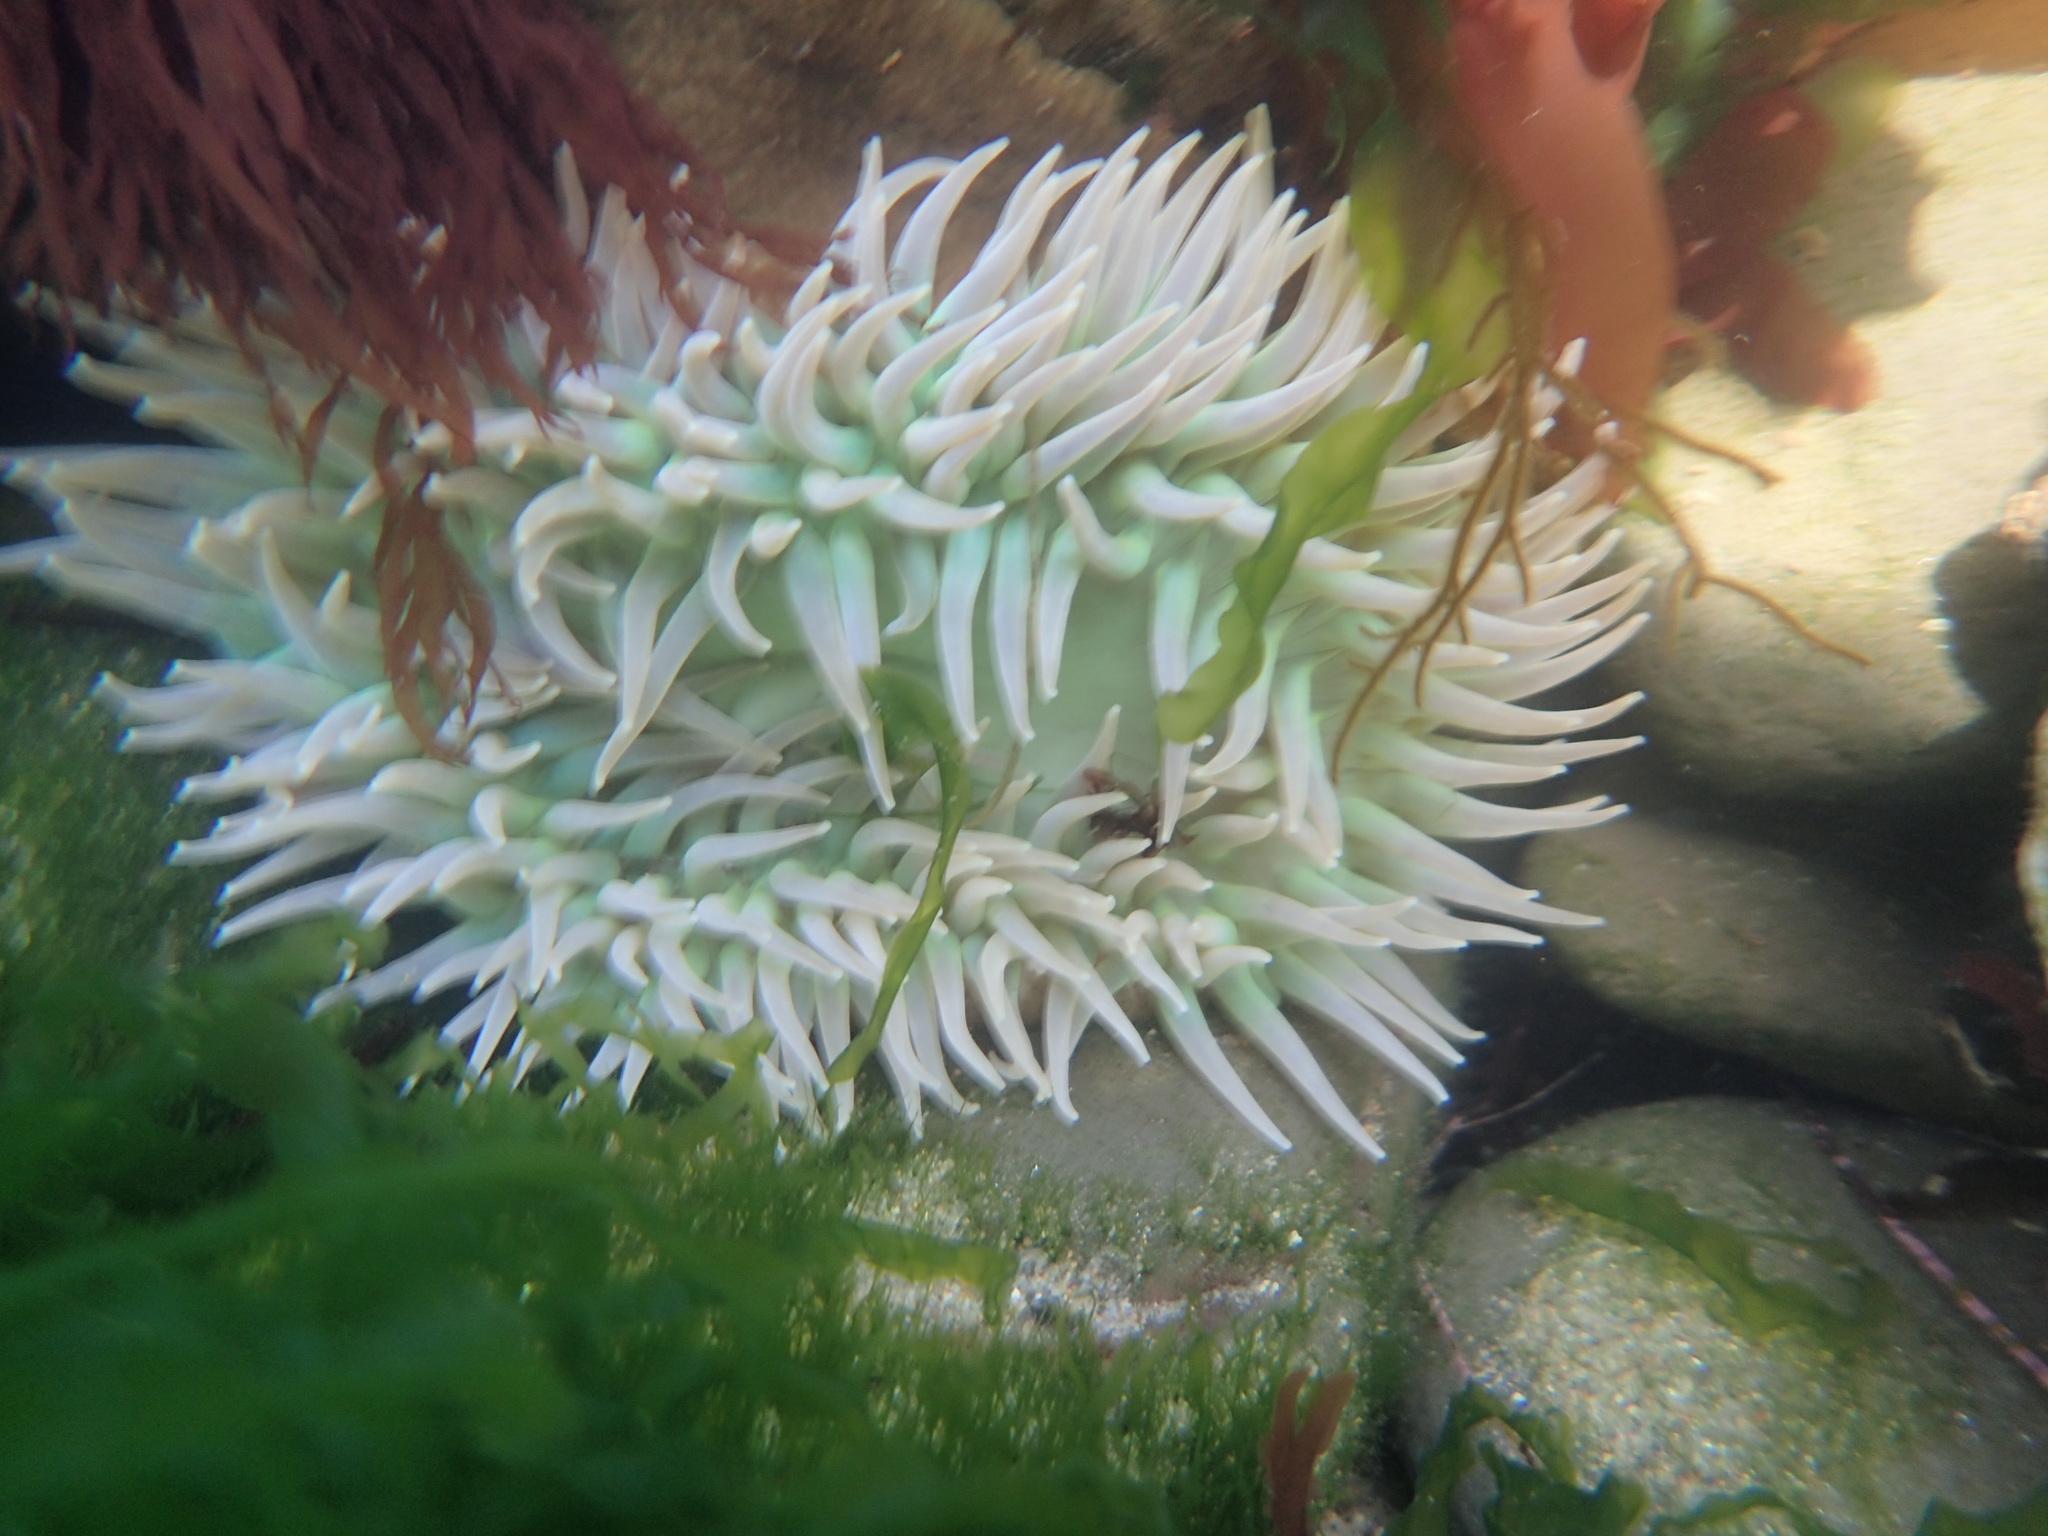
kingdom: Animalia
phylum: Cnidaria
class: Anthozoa
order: Actiniaria
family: Actiniidae
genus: Anthopleura
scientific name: Anthopleura xanthogrammica
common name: Giant green anemone
